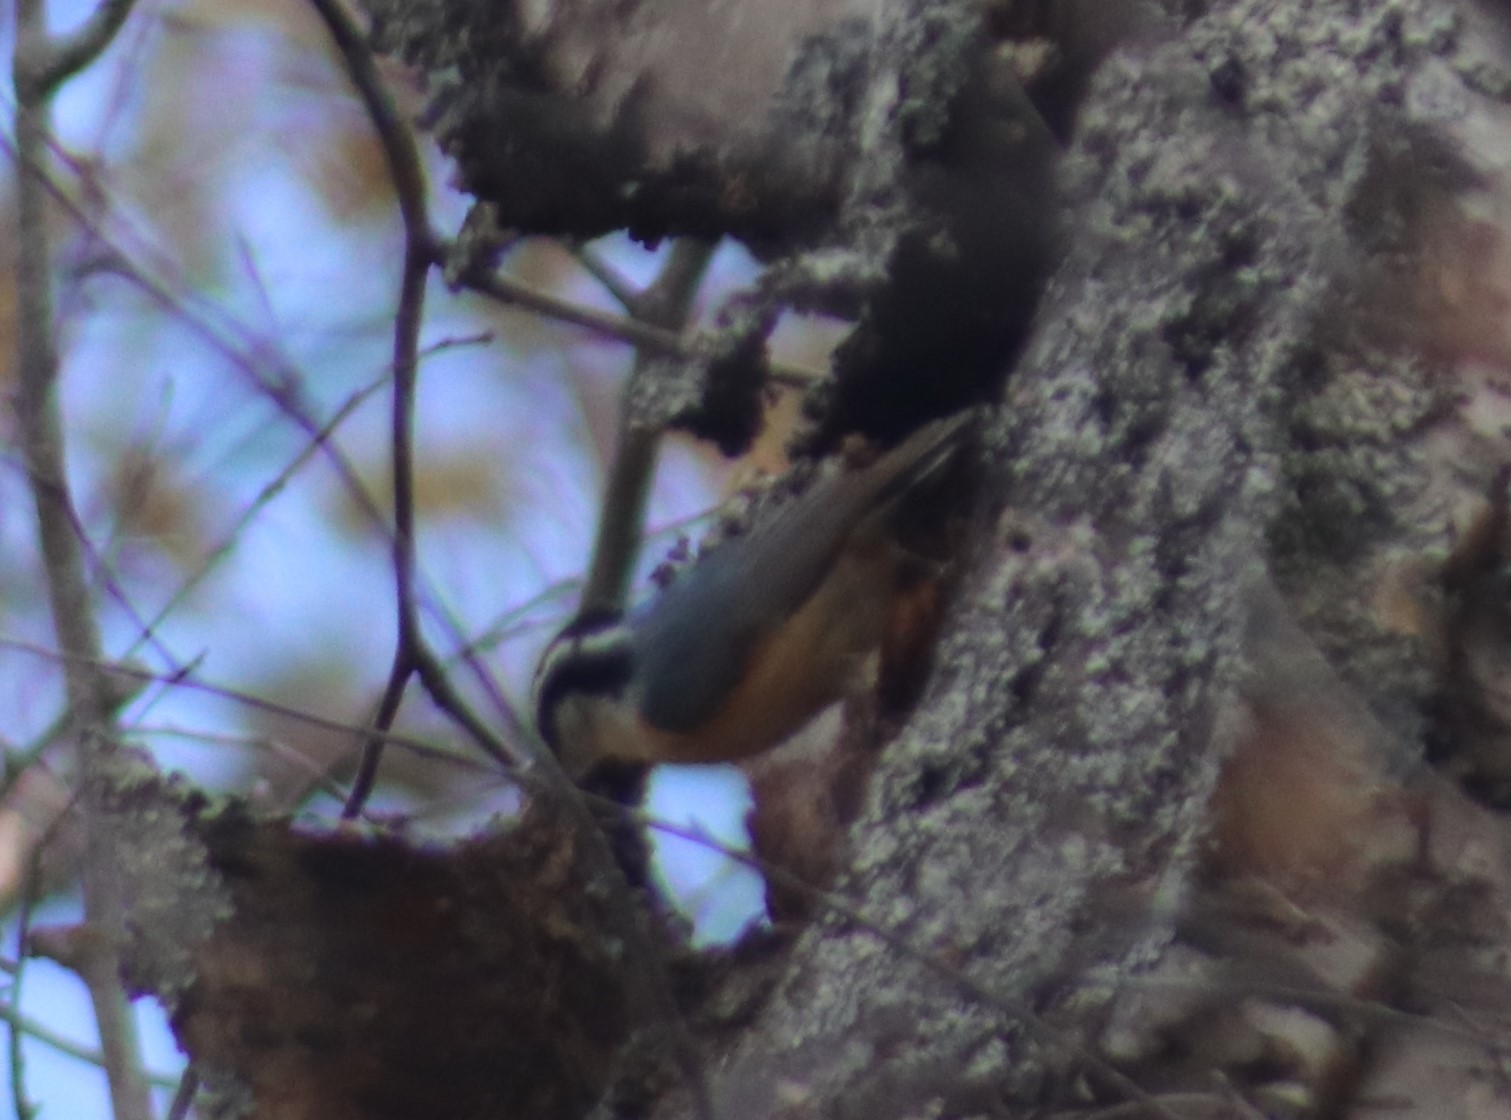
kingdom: Animalia
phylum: Chordata
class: Aves
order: Passeriformes
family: Sittidae
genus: Sitta
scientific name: Sitta canadensis
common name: Red-breasted nuthatch
